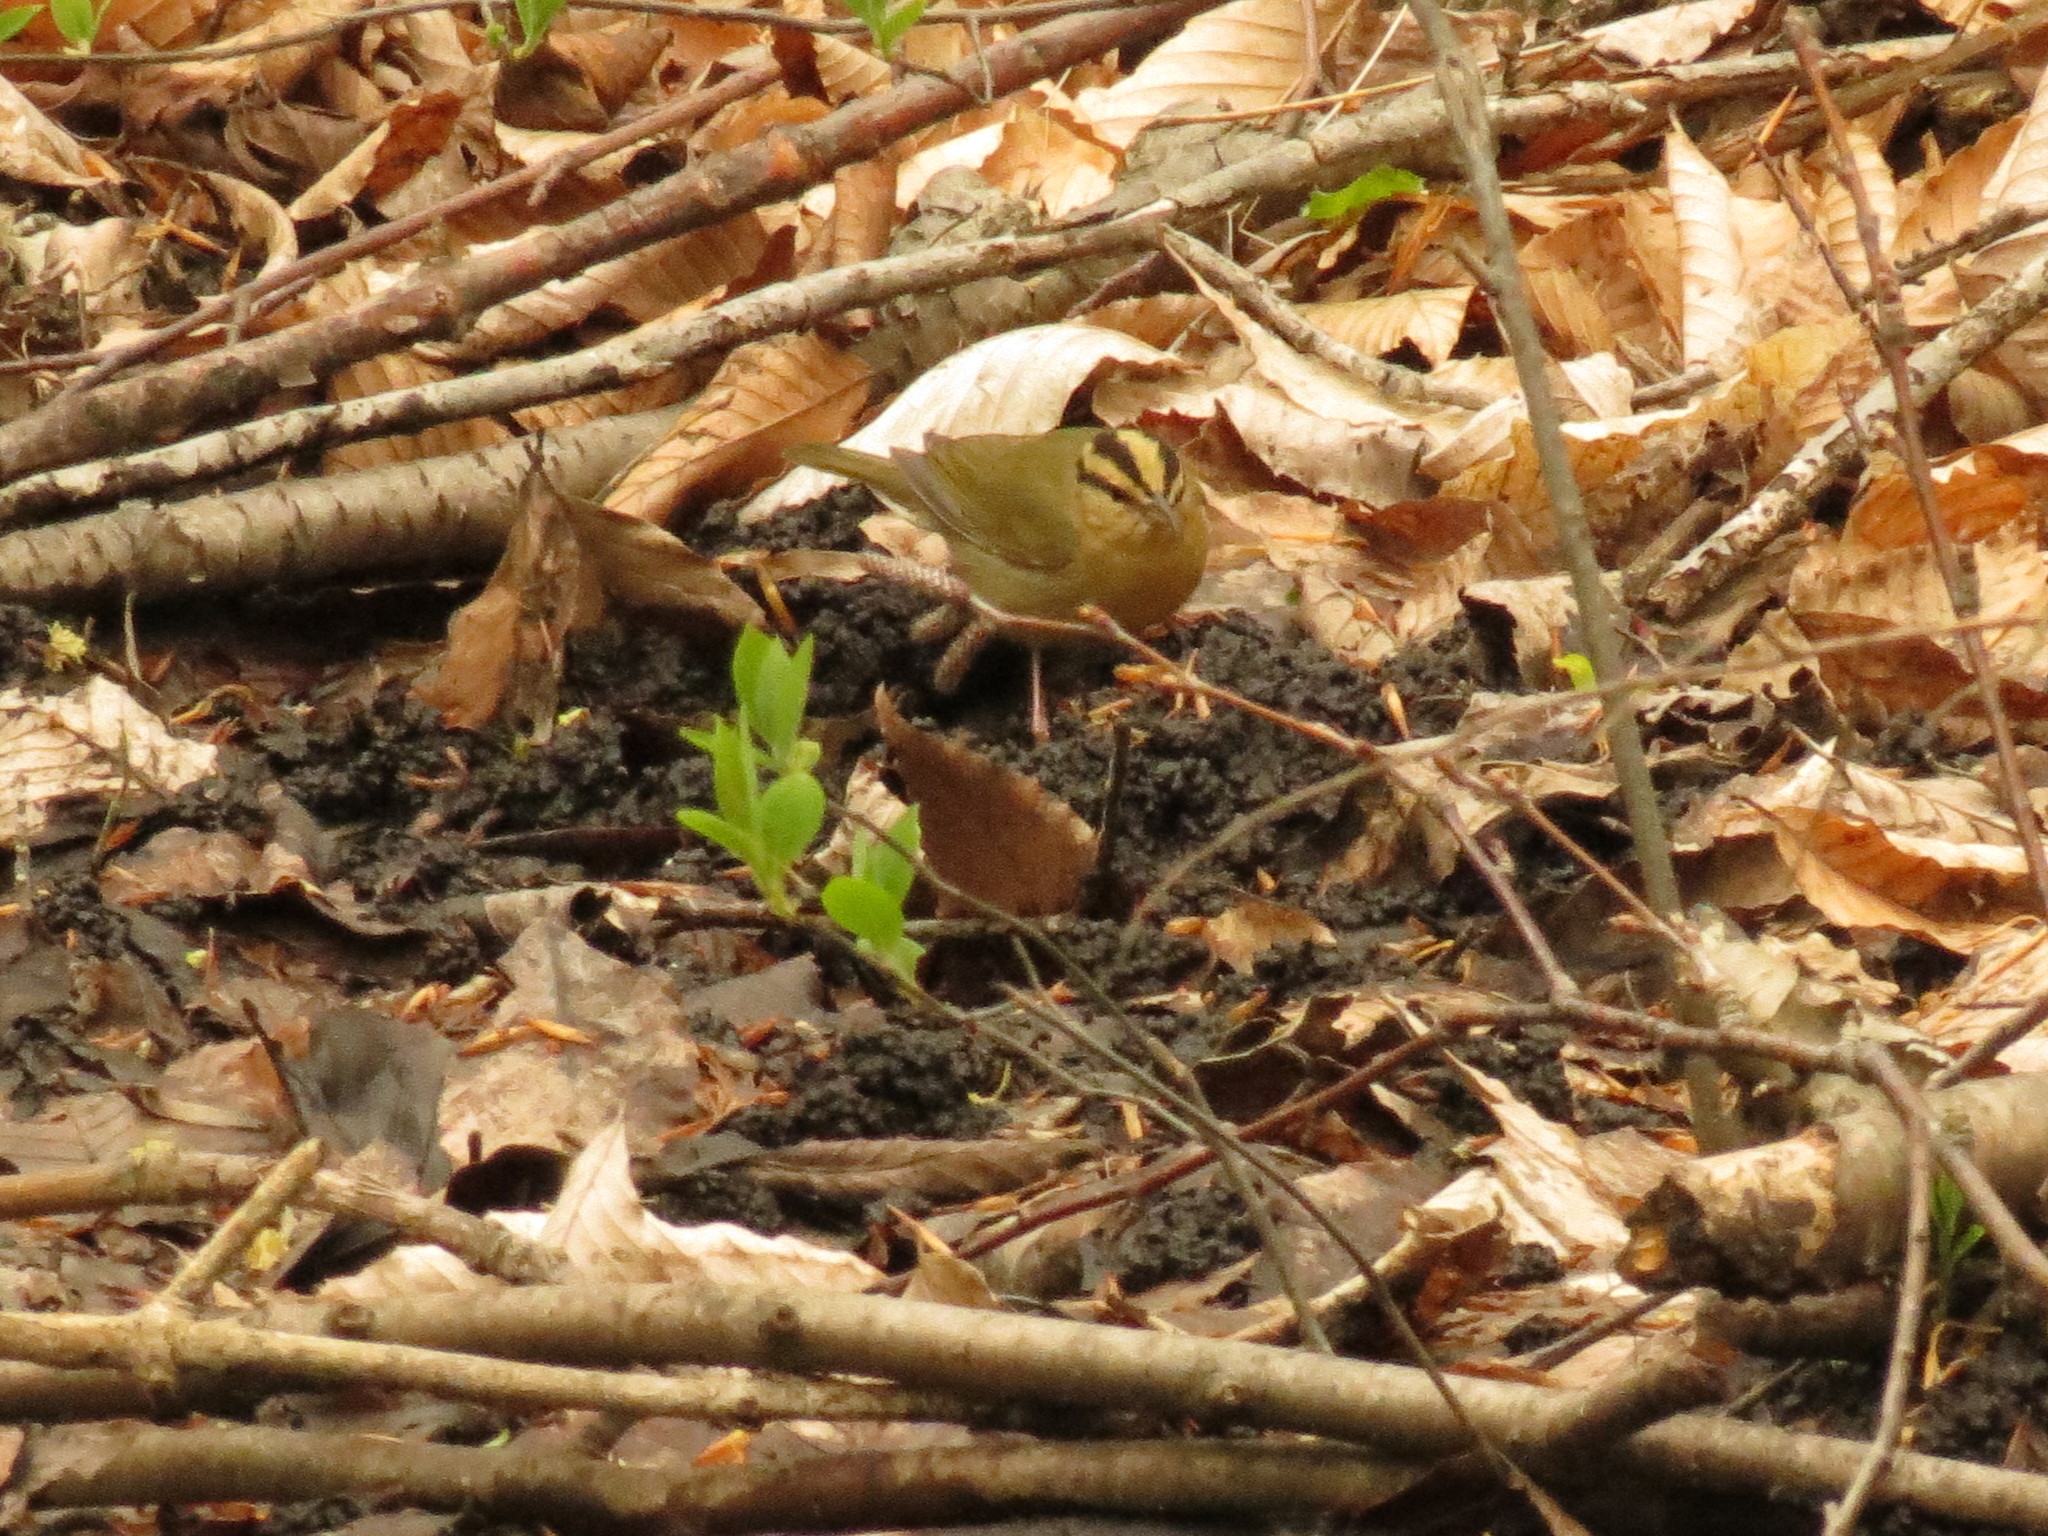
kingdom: Animalia
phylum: Chordata
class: Aves
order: Passeriformes
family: Parulidae
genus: Helmitheros
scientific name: Helmitheros vermivorum
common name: Worm-eating warbler
